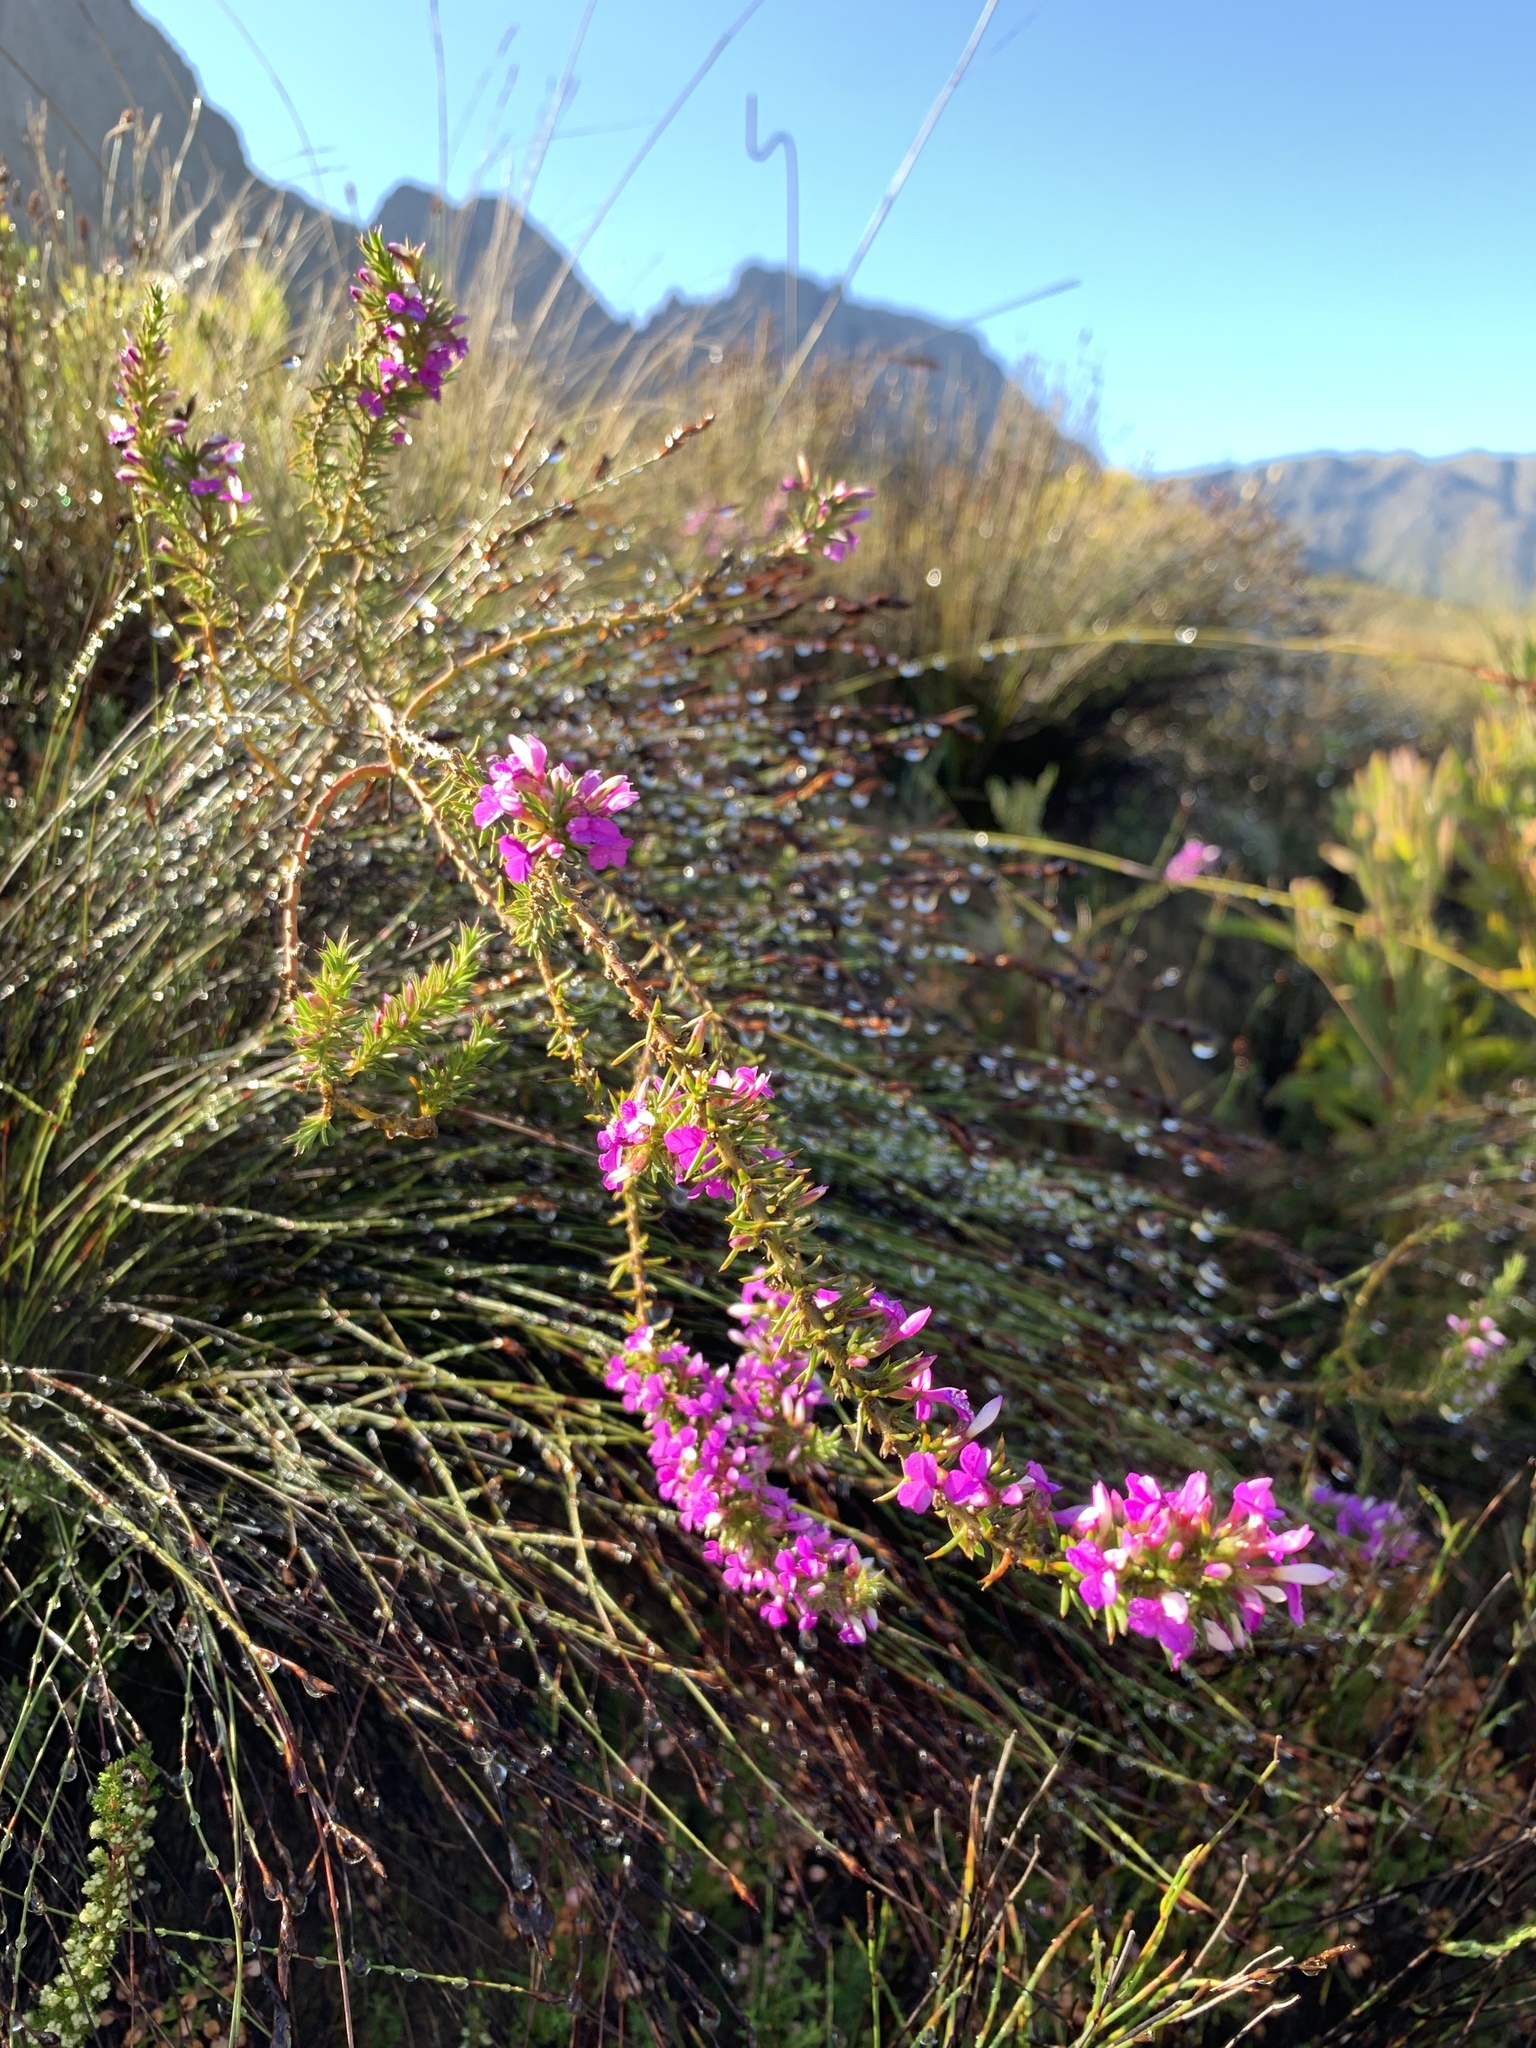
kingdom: Plantae
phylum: Tracheophyta
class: Magnoliopsida
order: Fabales
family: Polygalaceae
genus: Muraltia
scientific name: Muraltia heisteria
